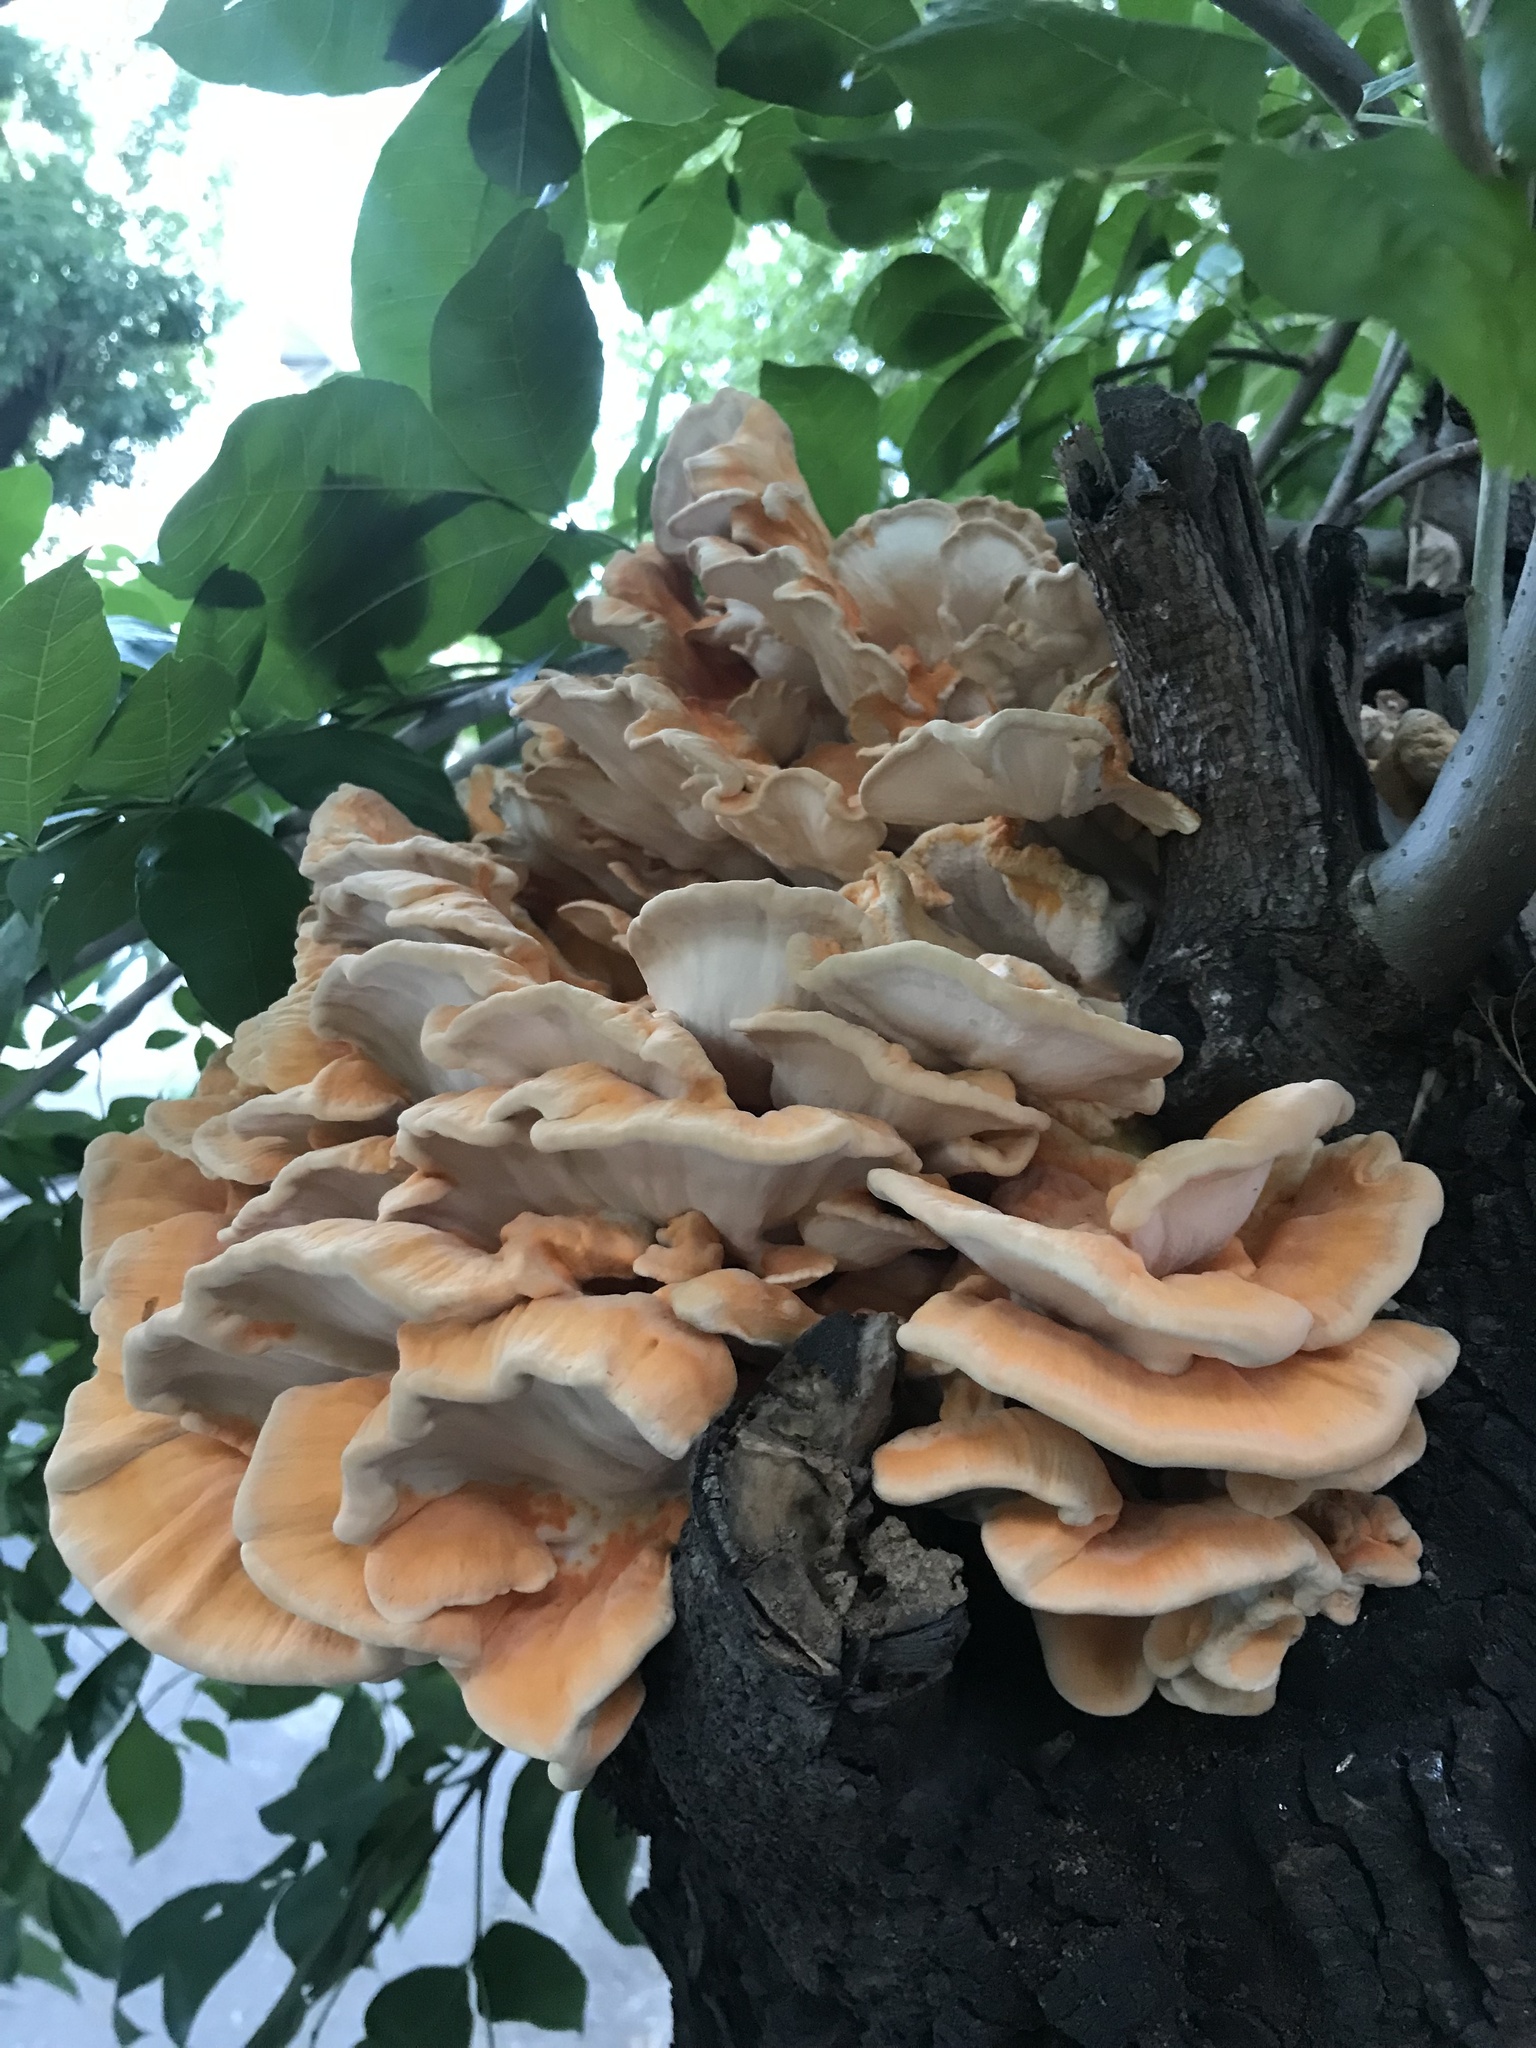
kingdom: Fungi
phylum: Basidiomycota
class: Agaricomycetes
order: Polyporales
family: Laetiporaceae
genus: Laetiporus
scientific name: Laetiporus sulphureus
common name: Chicken of the woods
